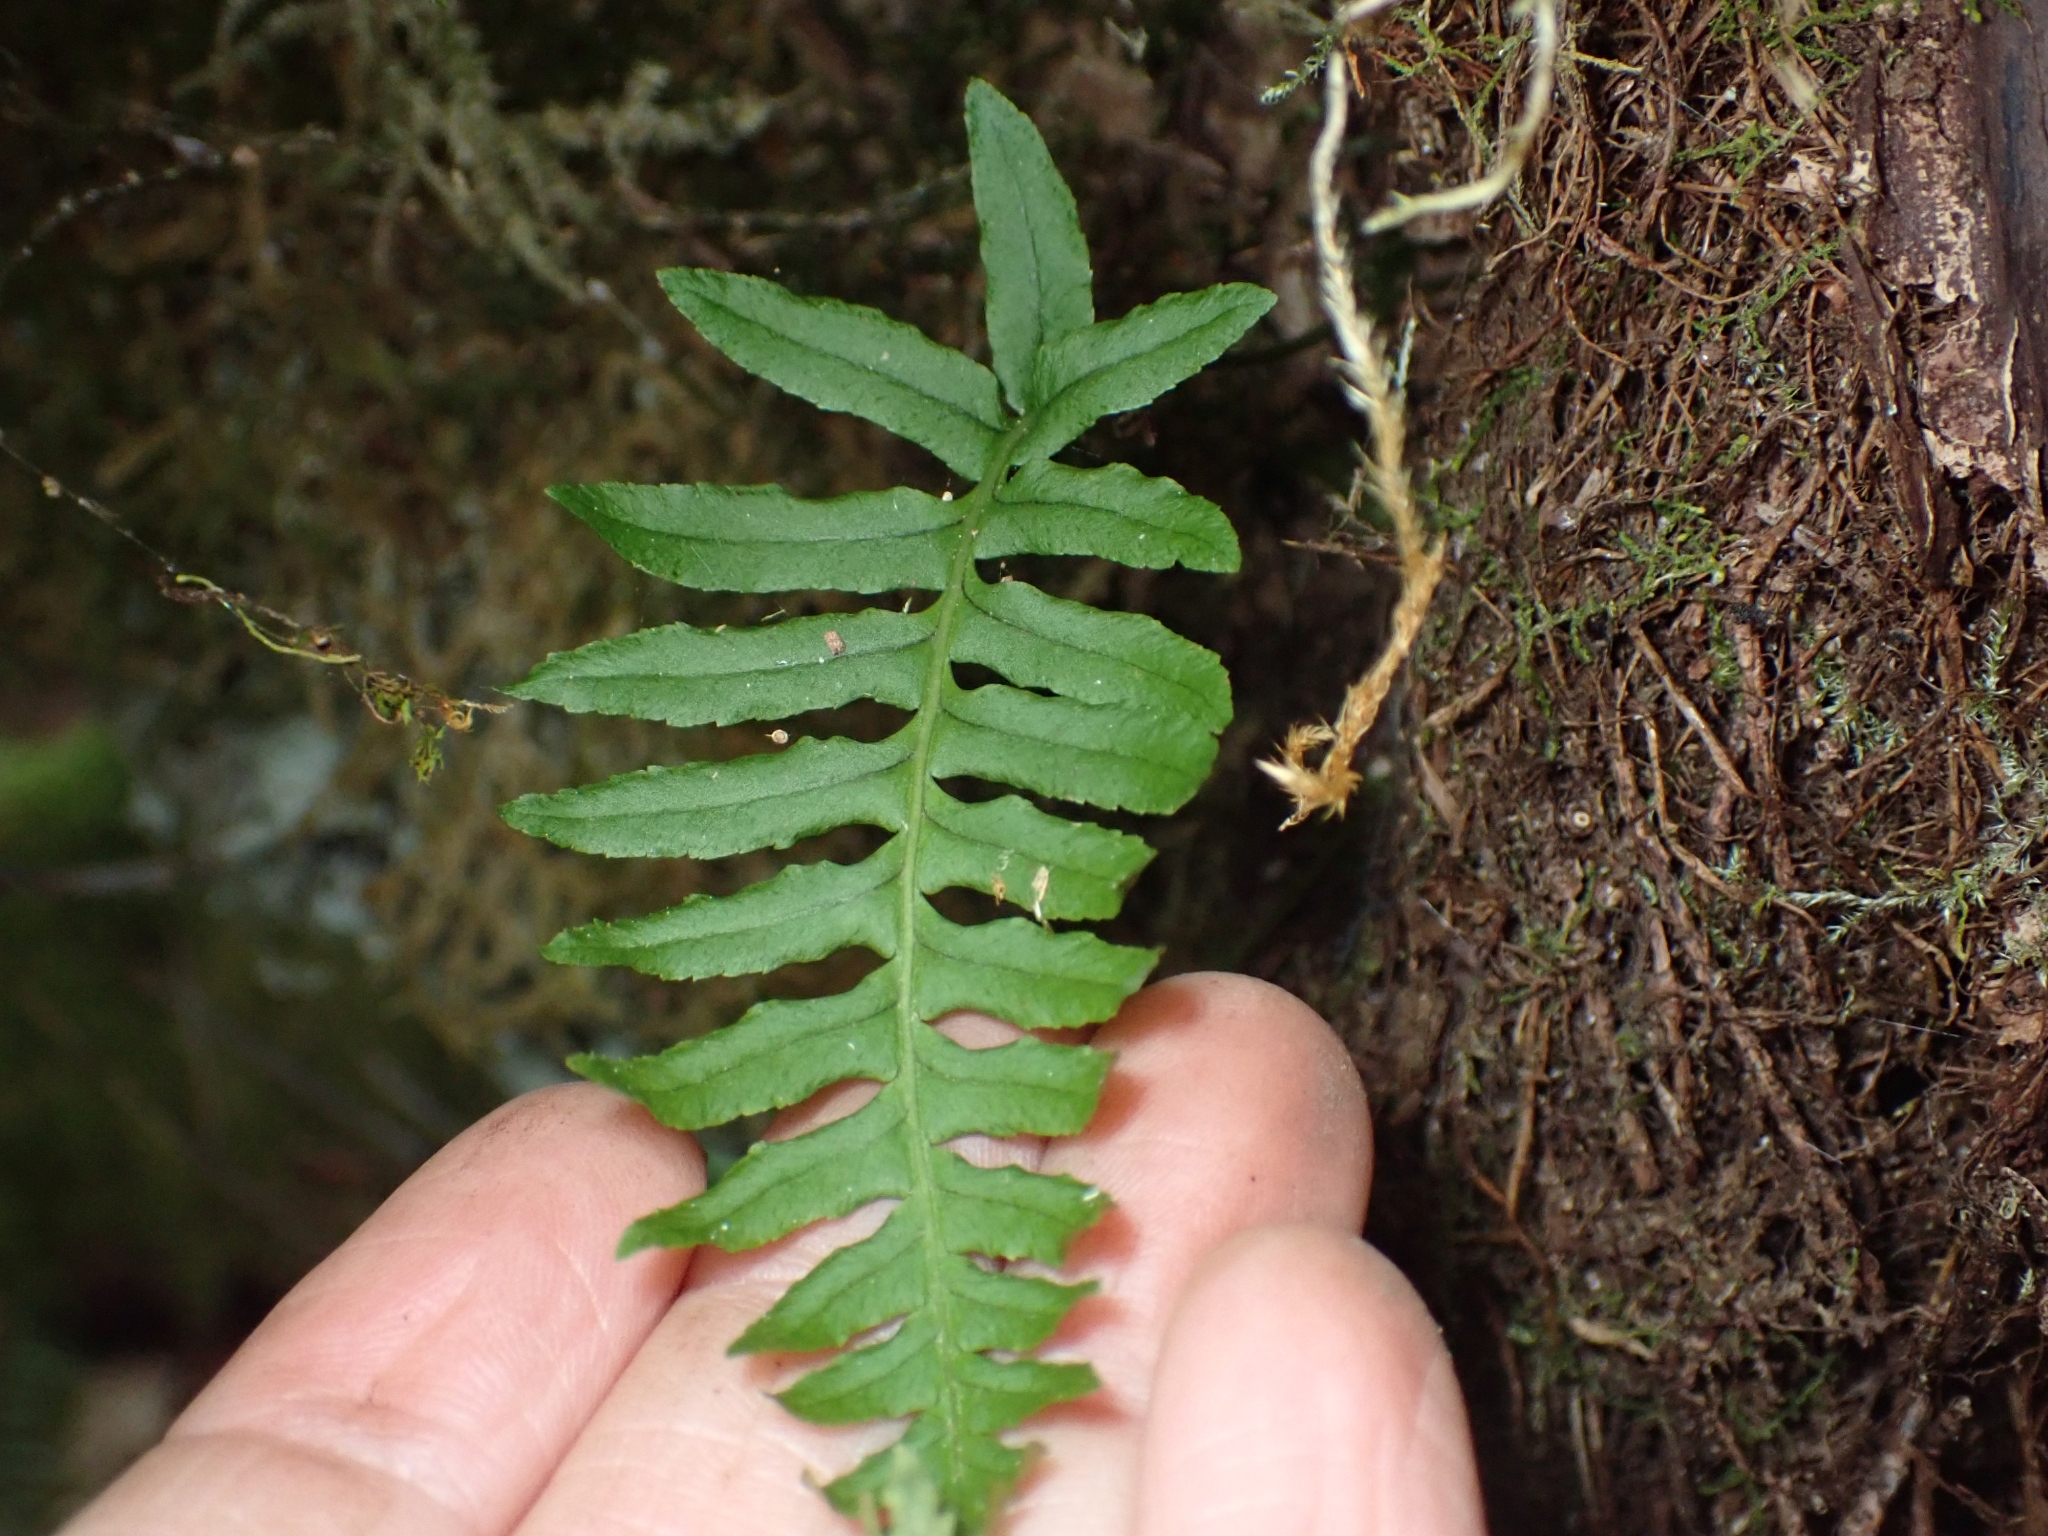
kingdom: Plantae
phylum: Tracheophyta
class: Polypodiopsida
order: Polypodiales
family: Polypodiaceae
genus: Polypodium
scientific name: Polypodium glycyrrhiza
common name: Licorice fern
